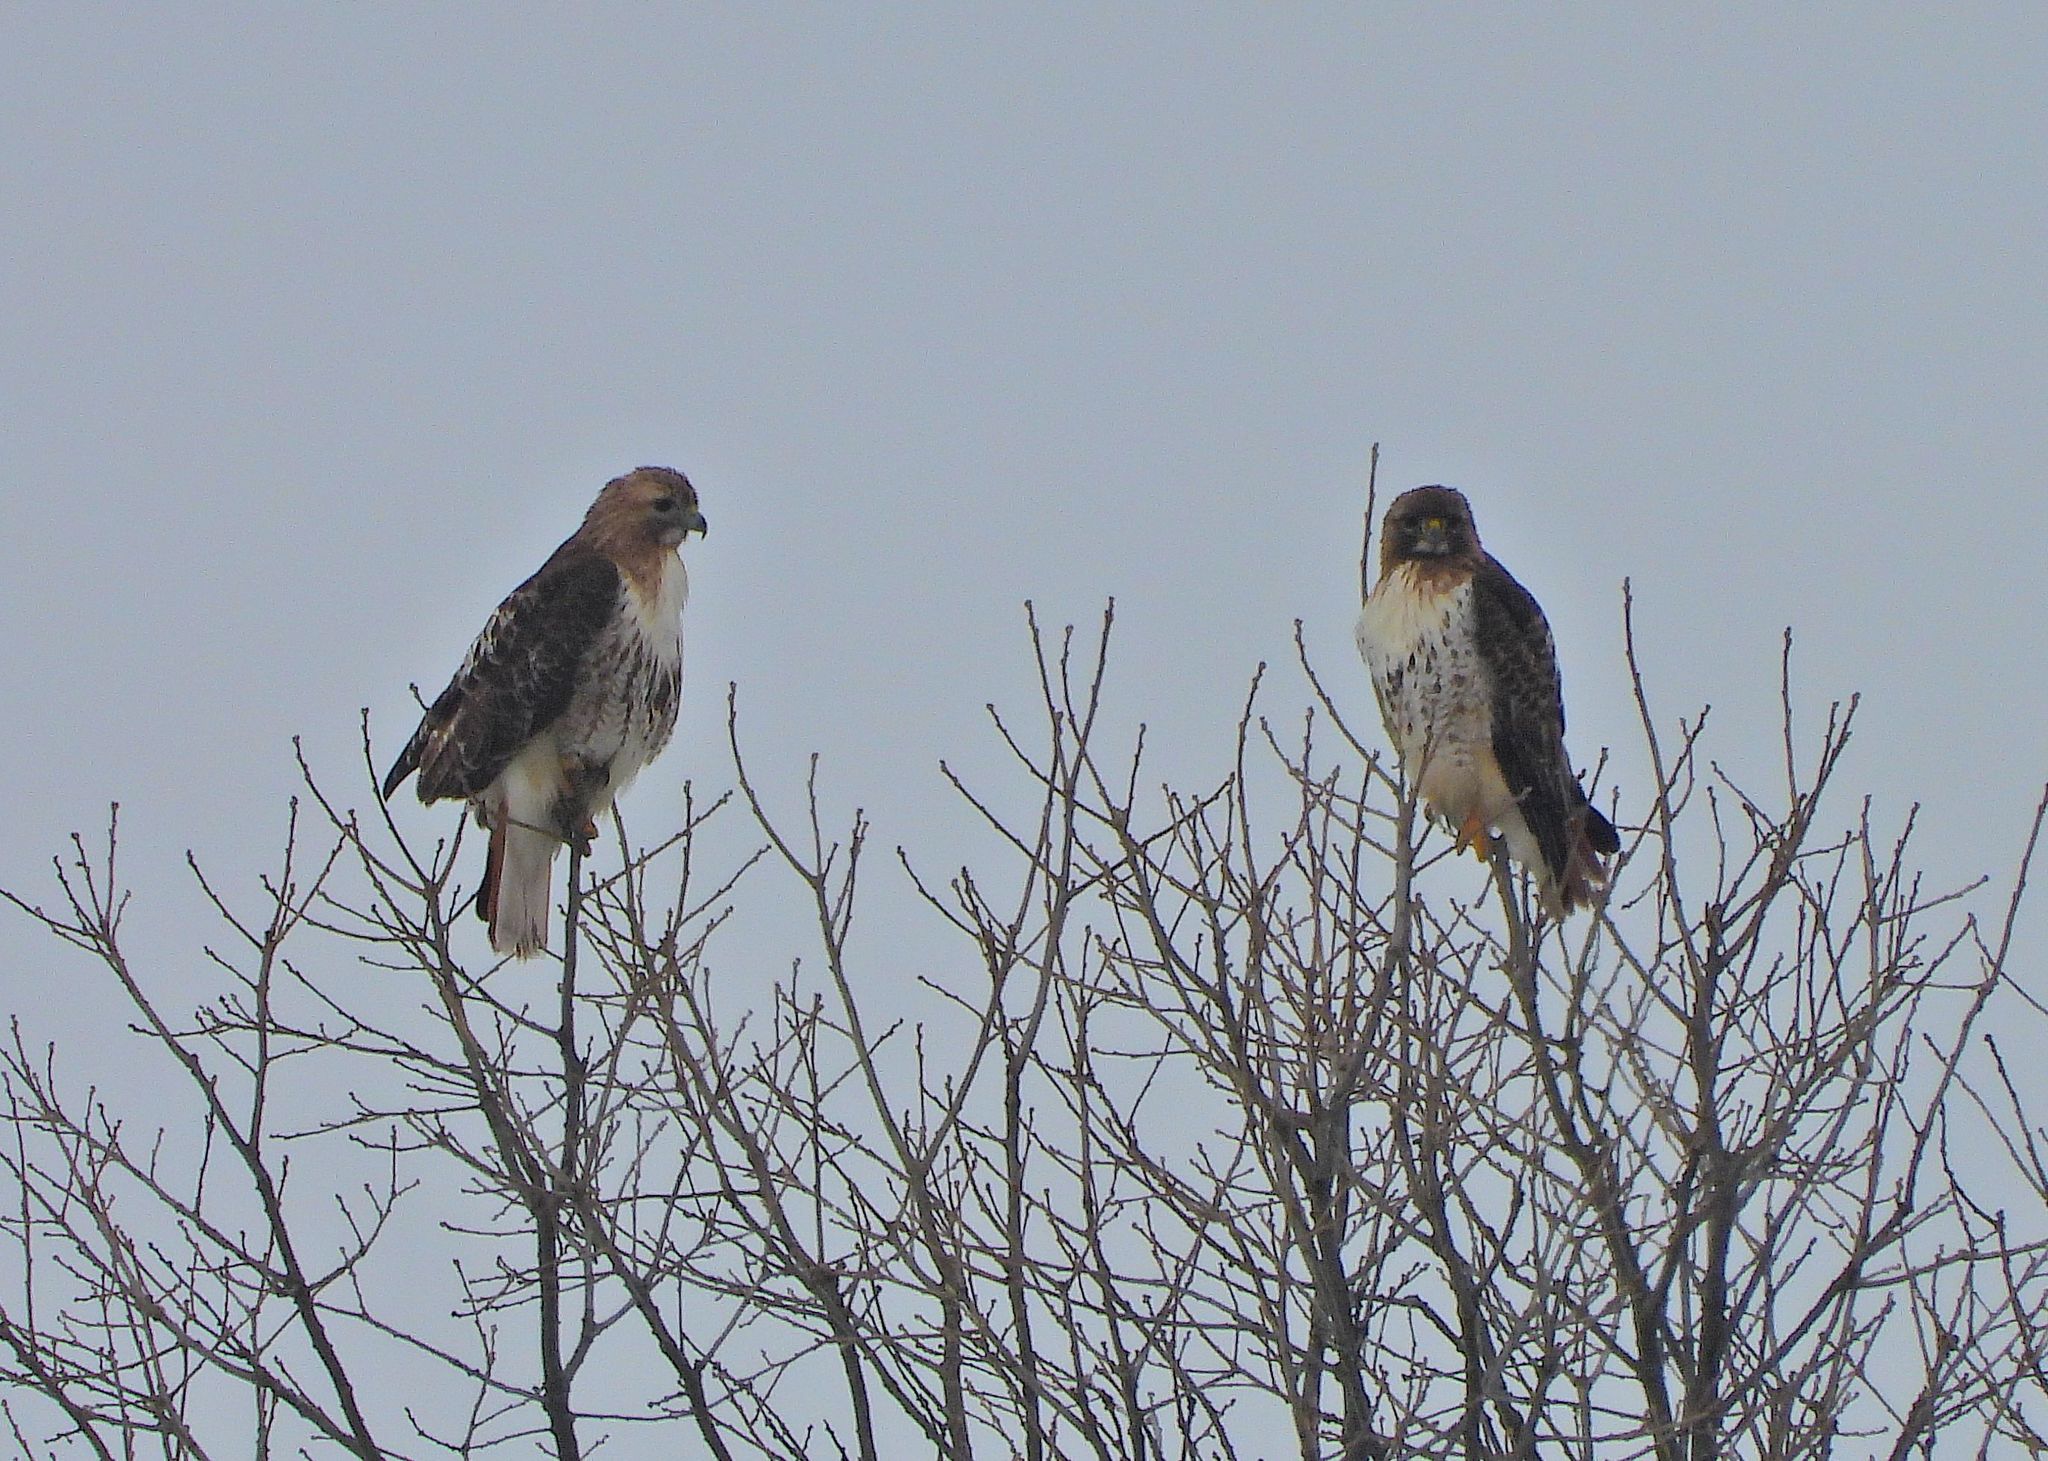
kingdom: Animalia
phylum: Chordata
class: Aves
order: Accipitriformes
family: Accipitridae
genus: Buteo
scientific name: Buteo jamaicensis
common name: Red-tailed hawk
